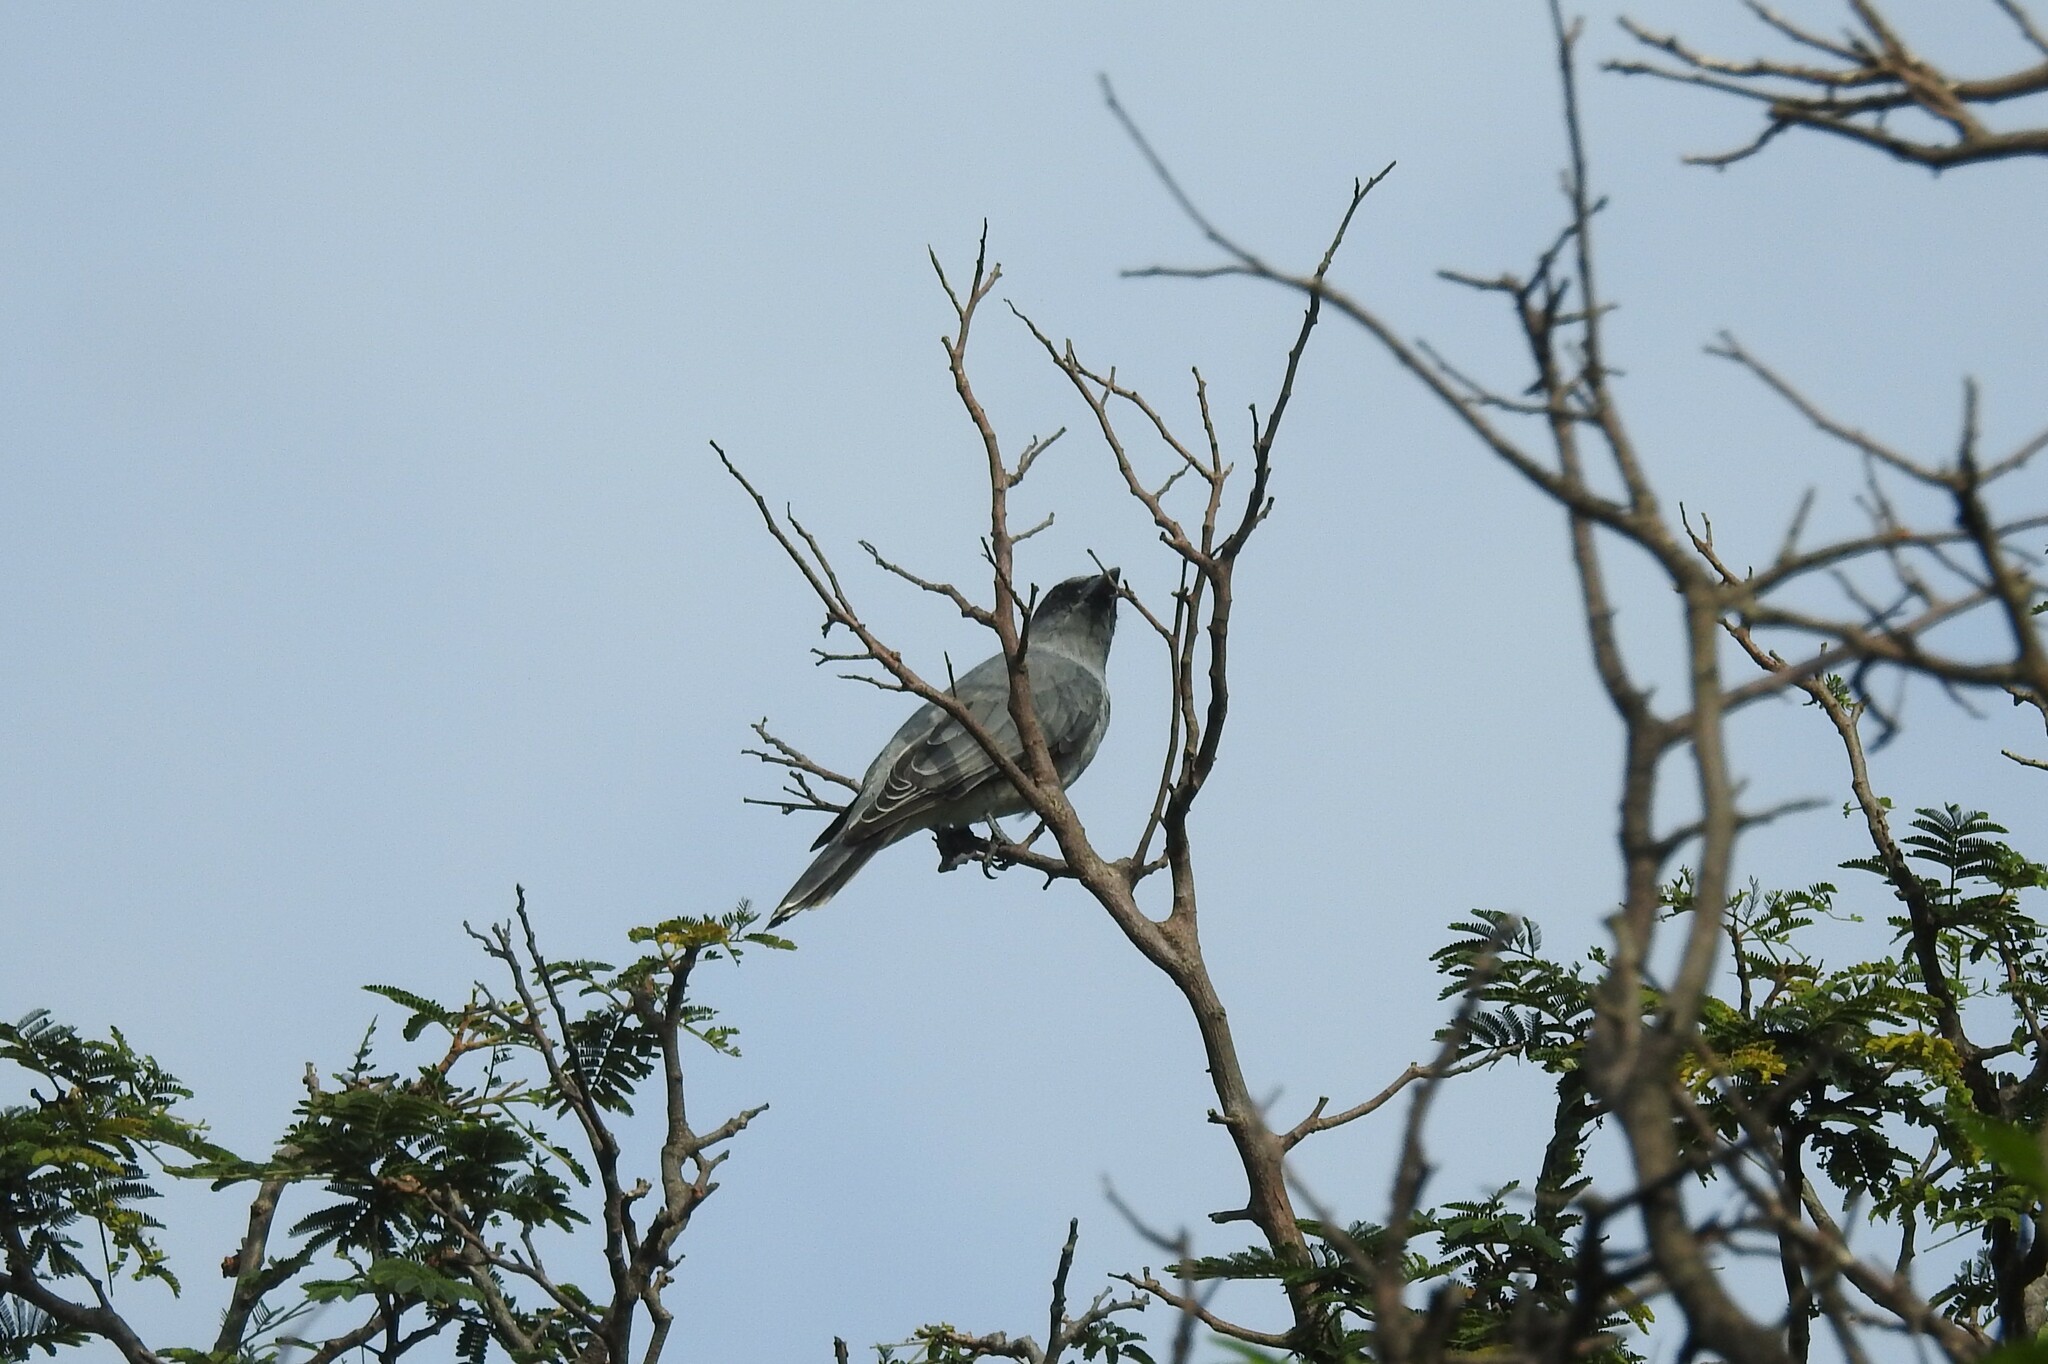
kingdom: Animalia
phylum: Chordata
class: Aves
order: Passeriformes
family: Campephagidae
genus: Coracina
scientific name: Coracina macei
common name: Large cuckooshrike
